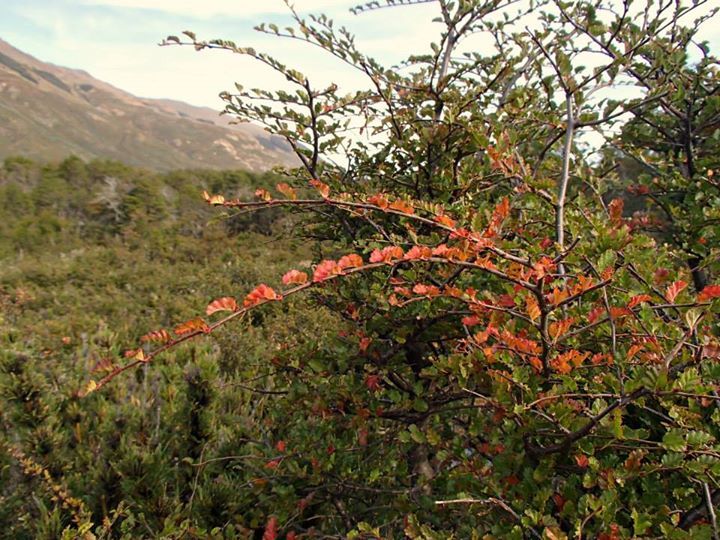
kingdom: Plantae
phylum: Tracheophyta
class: Magnoliopsida
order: Fagales
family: Nothofagaceae
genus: Nothofagus
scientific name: Nothofagus antarctica
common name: Antarctic beech
